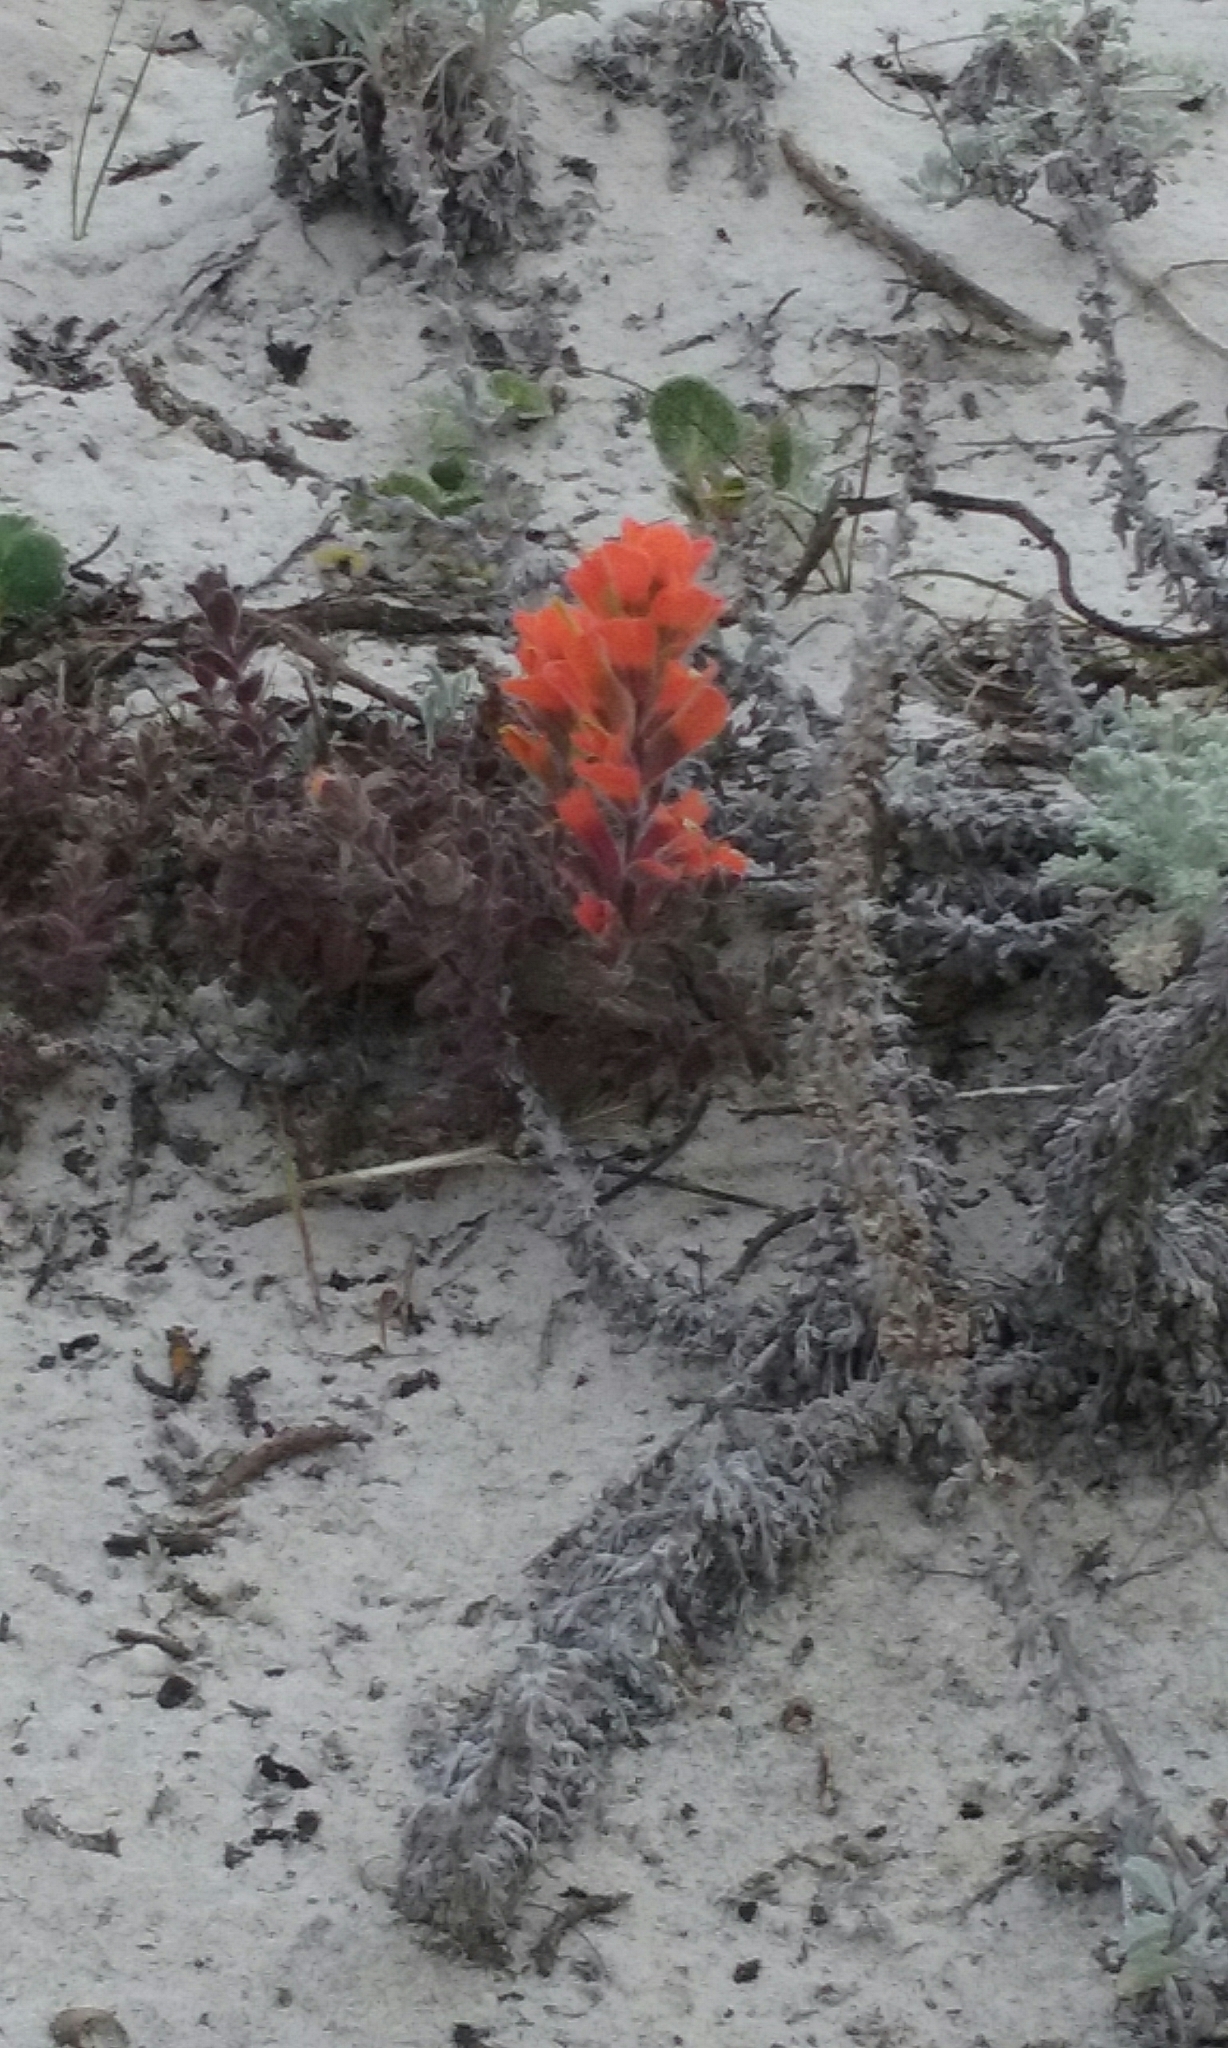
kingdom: Plantae
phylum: Tracheophyta
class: Magnoliopsida
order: Lamiales
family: Orobanchaceae
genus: Castilleja
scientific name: Castilleja latifolia
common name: Monterey indian paintbrush
